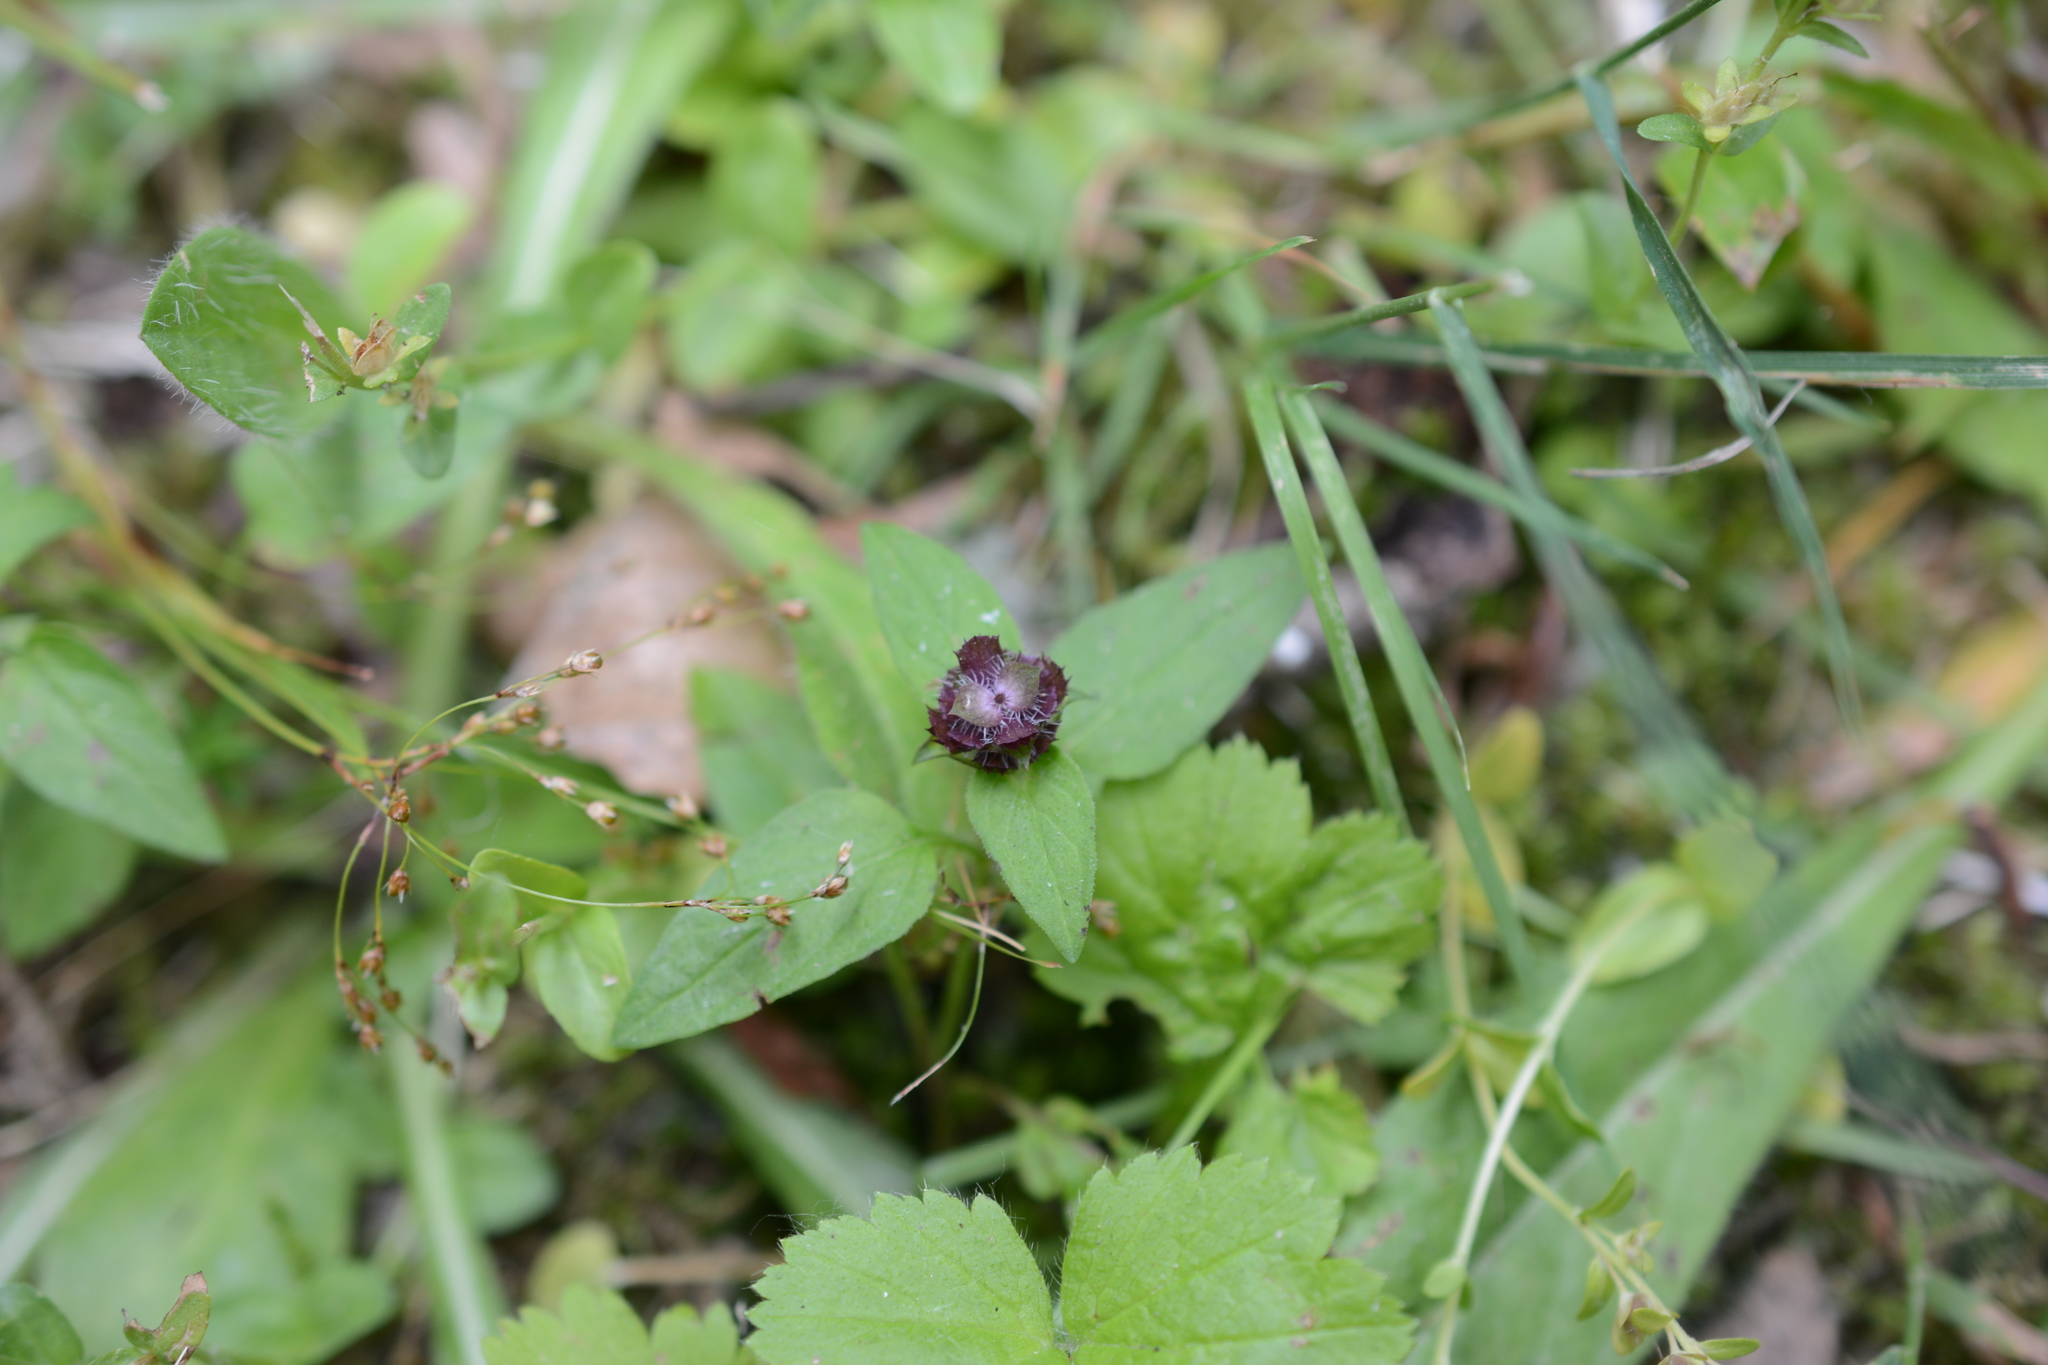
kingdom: Plantae
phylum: Tracheophyta
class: Magnoliopsida
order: Lamiales
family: Lamiaceae
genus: Prunella
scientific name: Prunella vulgaris
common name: Heal-all
